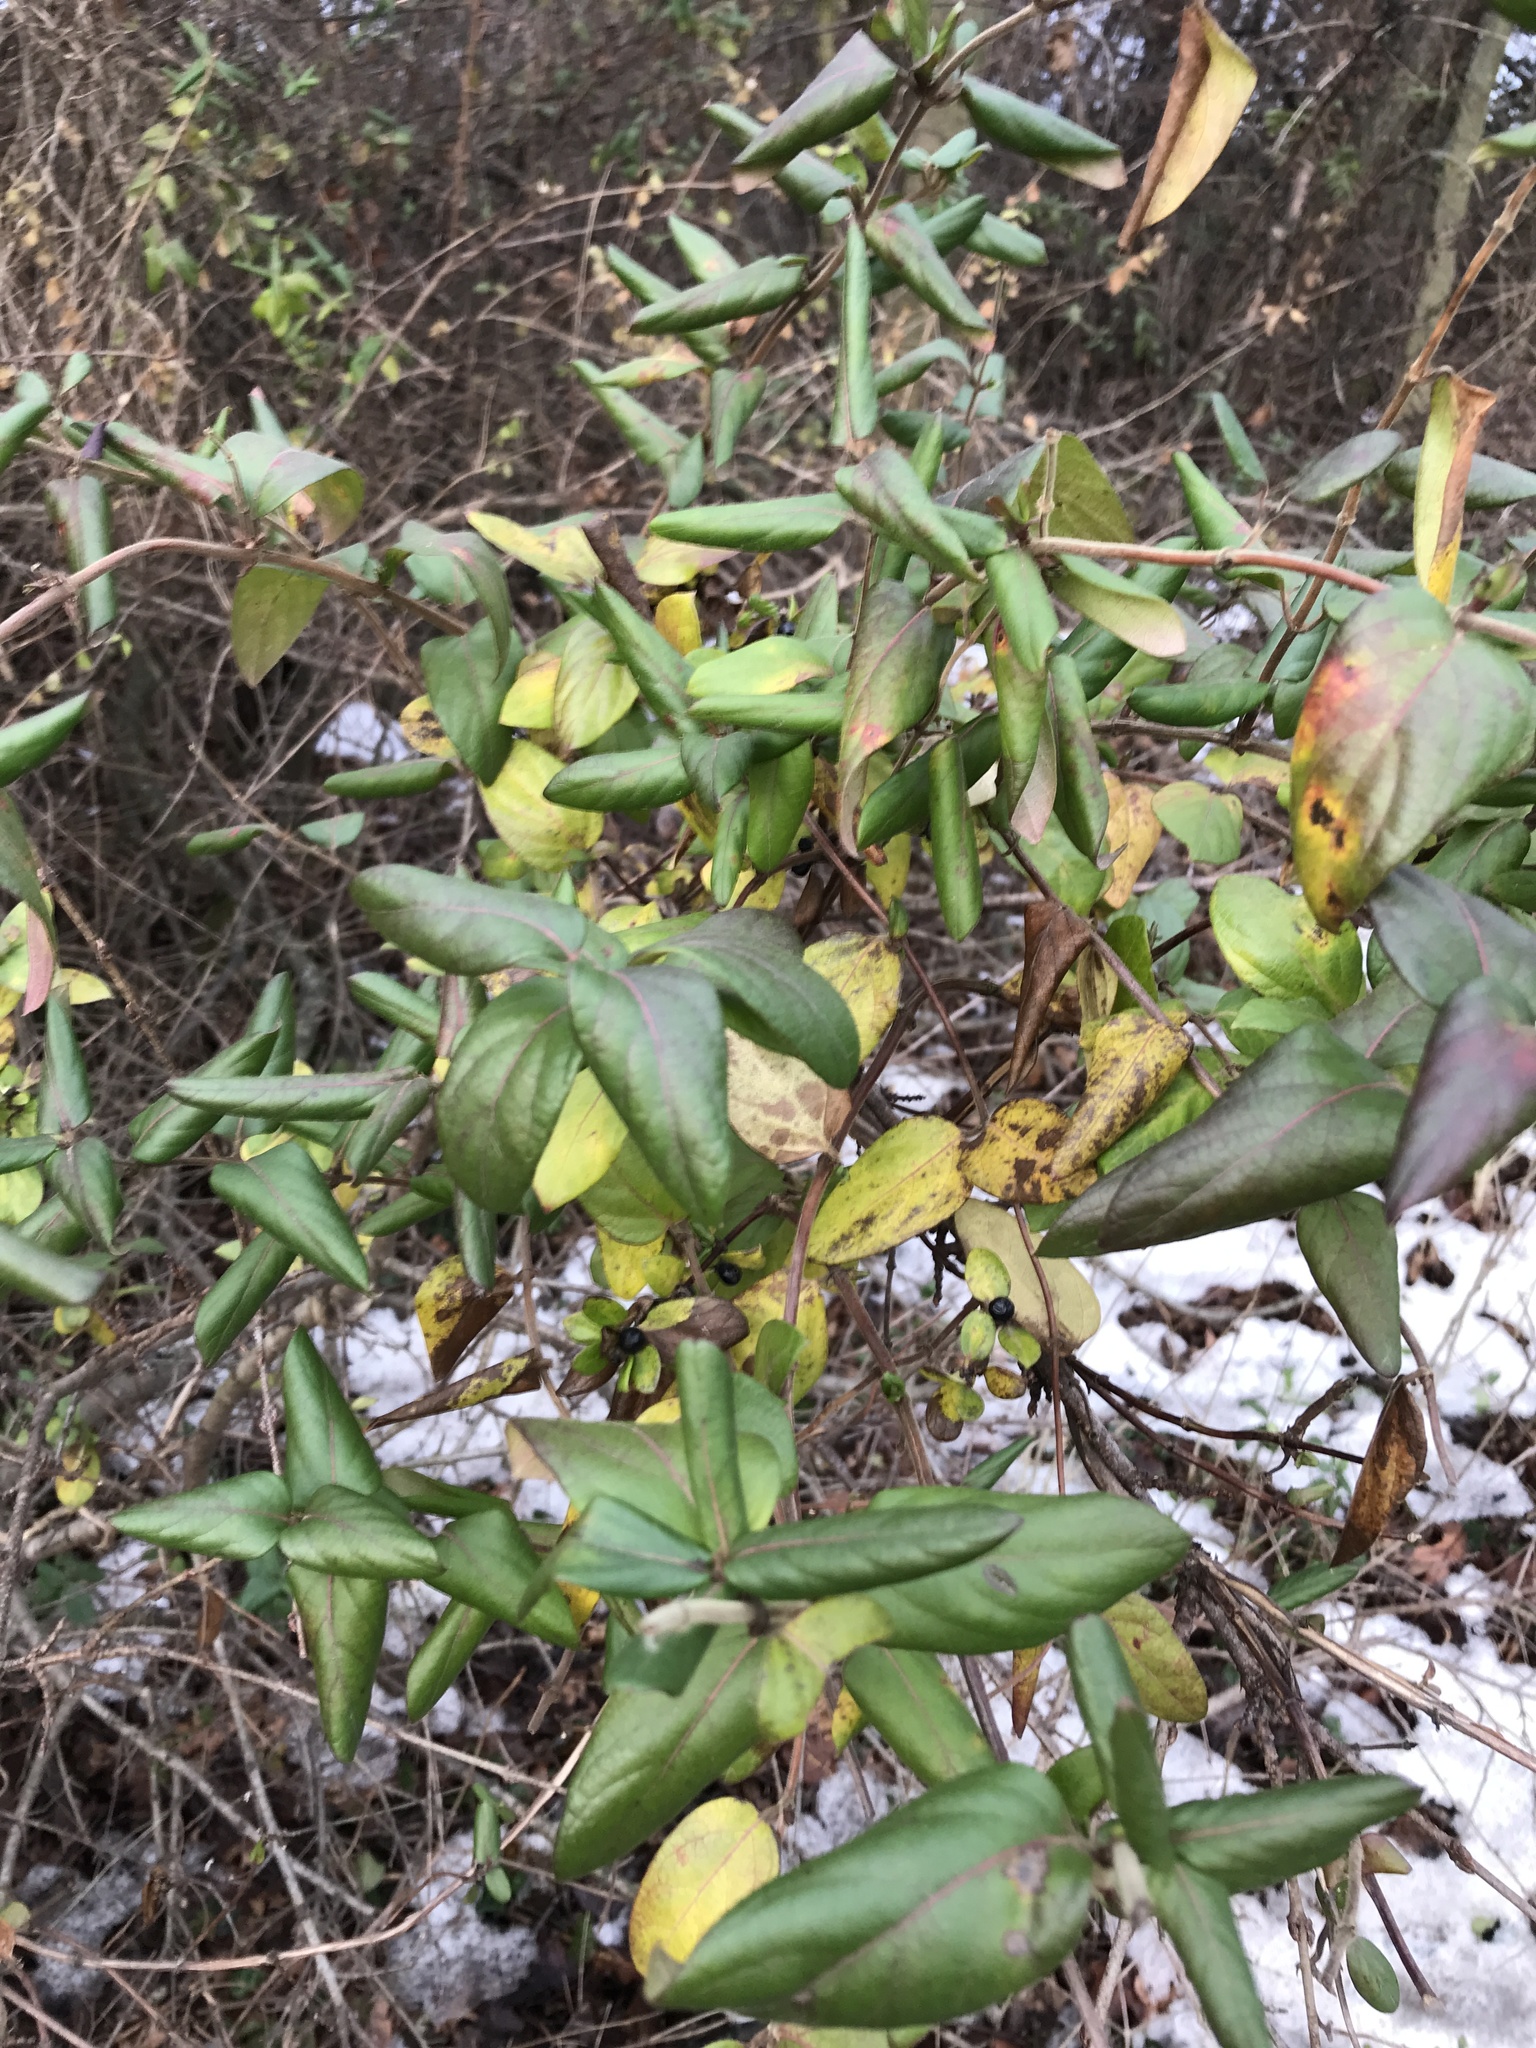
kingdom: Plantae
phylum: Tracheophyta
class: Magnoliopsida
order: Dipsacales
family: Caprifoliaceae
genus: Lonicera
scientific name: Lonicera japonica
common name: Japanese honeysuckle
